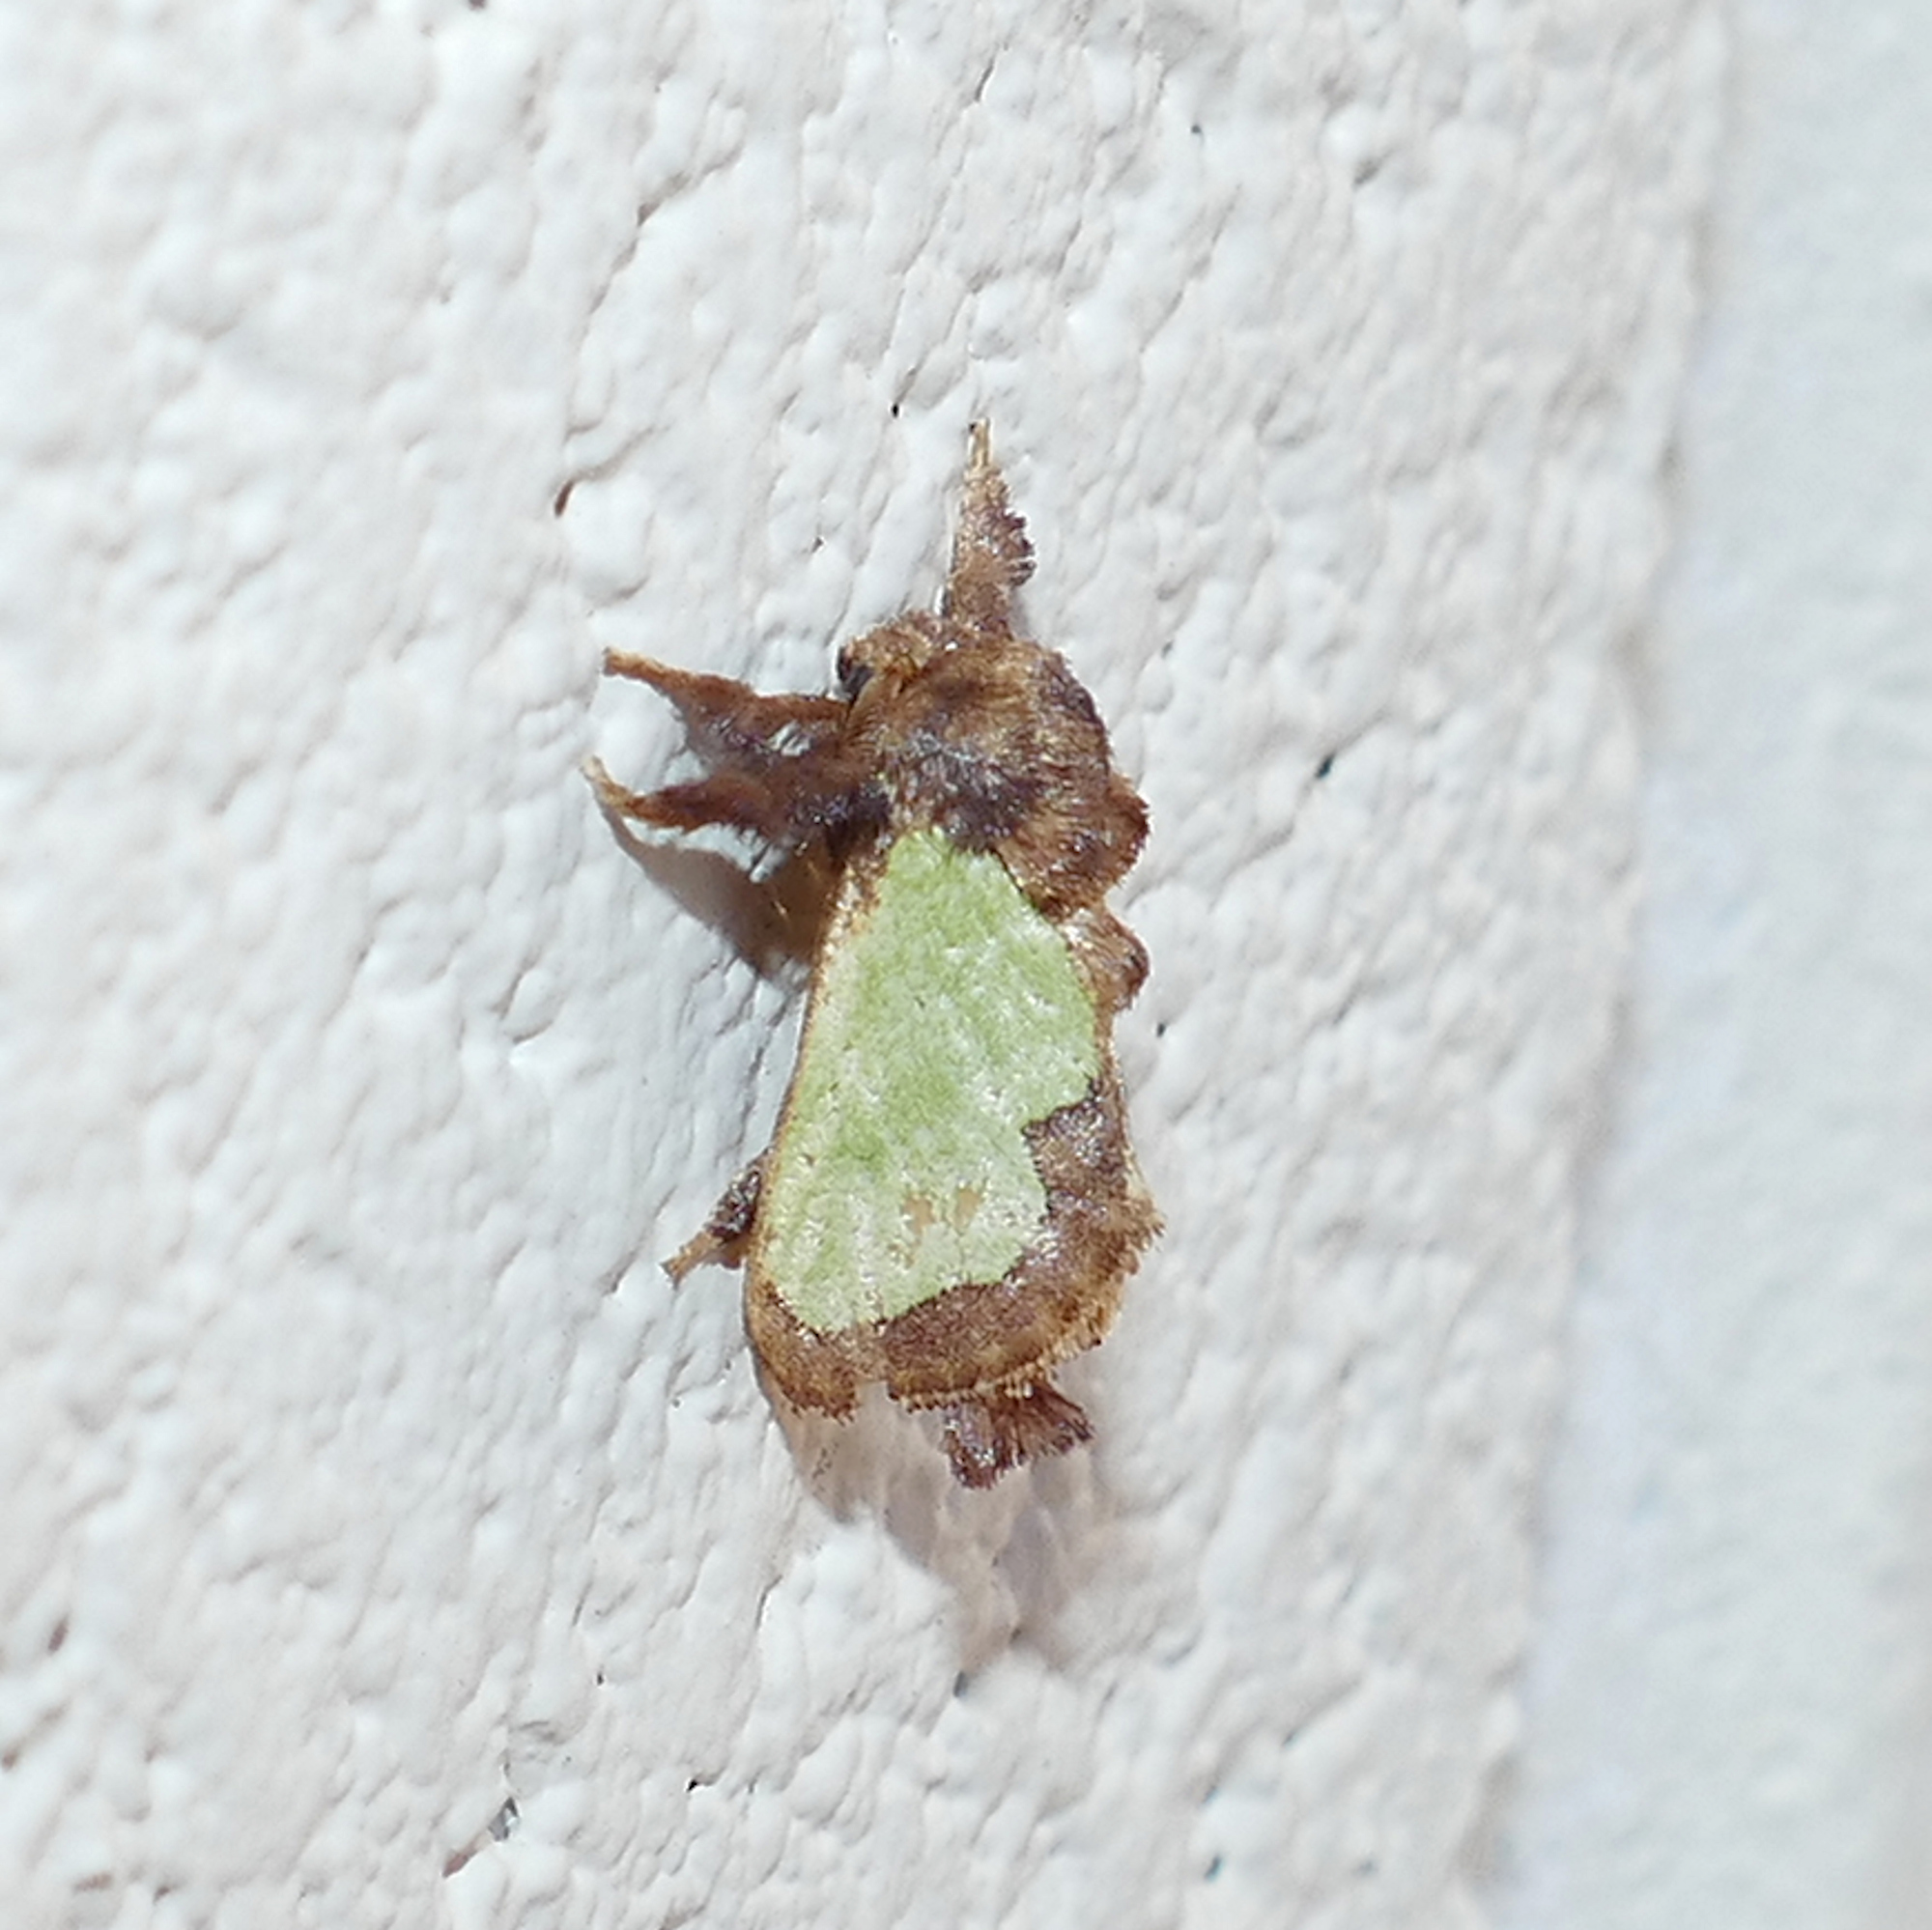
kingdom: Animalia
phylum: Arthropoda
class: Insecta
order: Lepidoptera
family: Limacodidae
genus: Euclea
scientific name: Euclea
